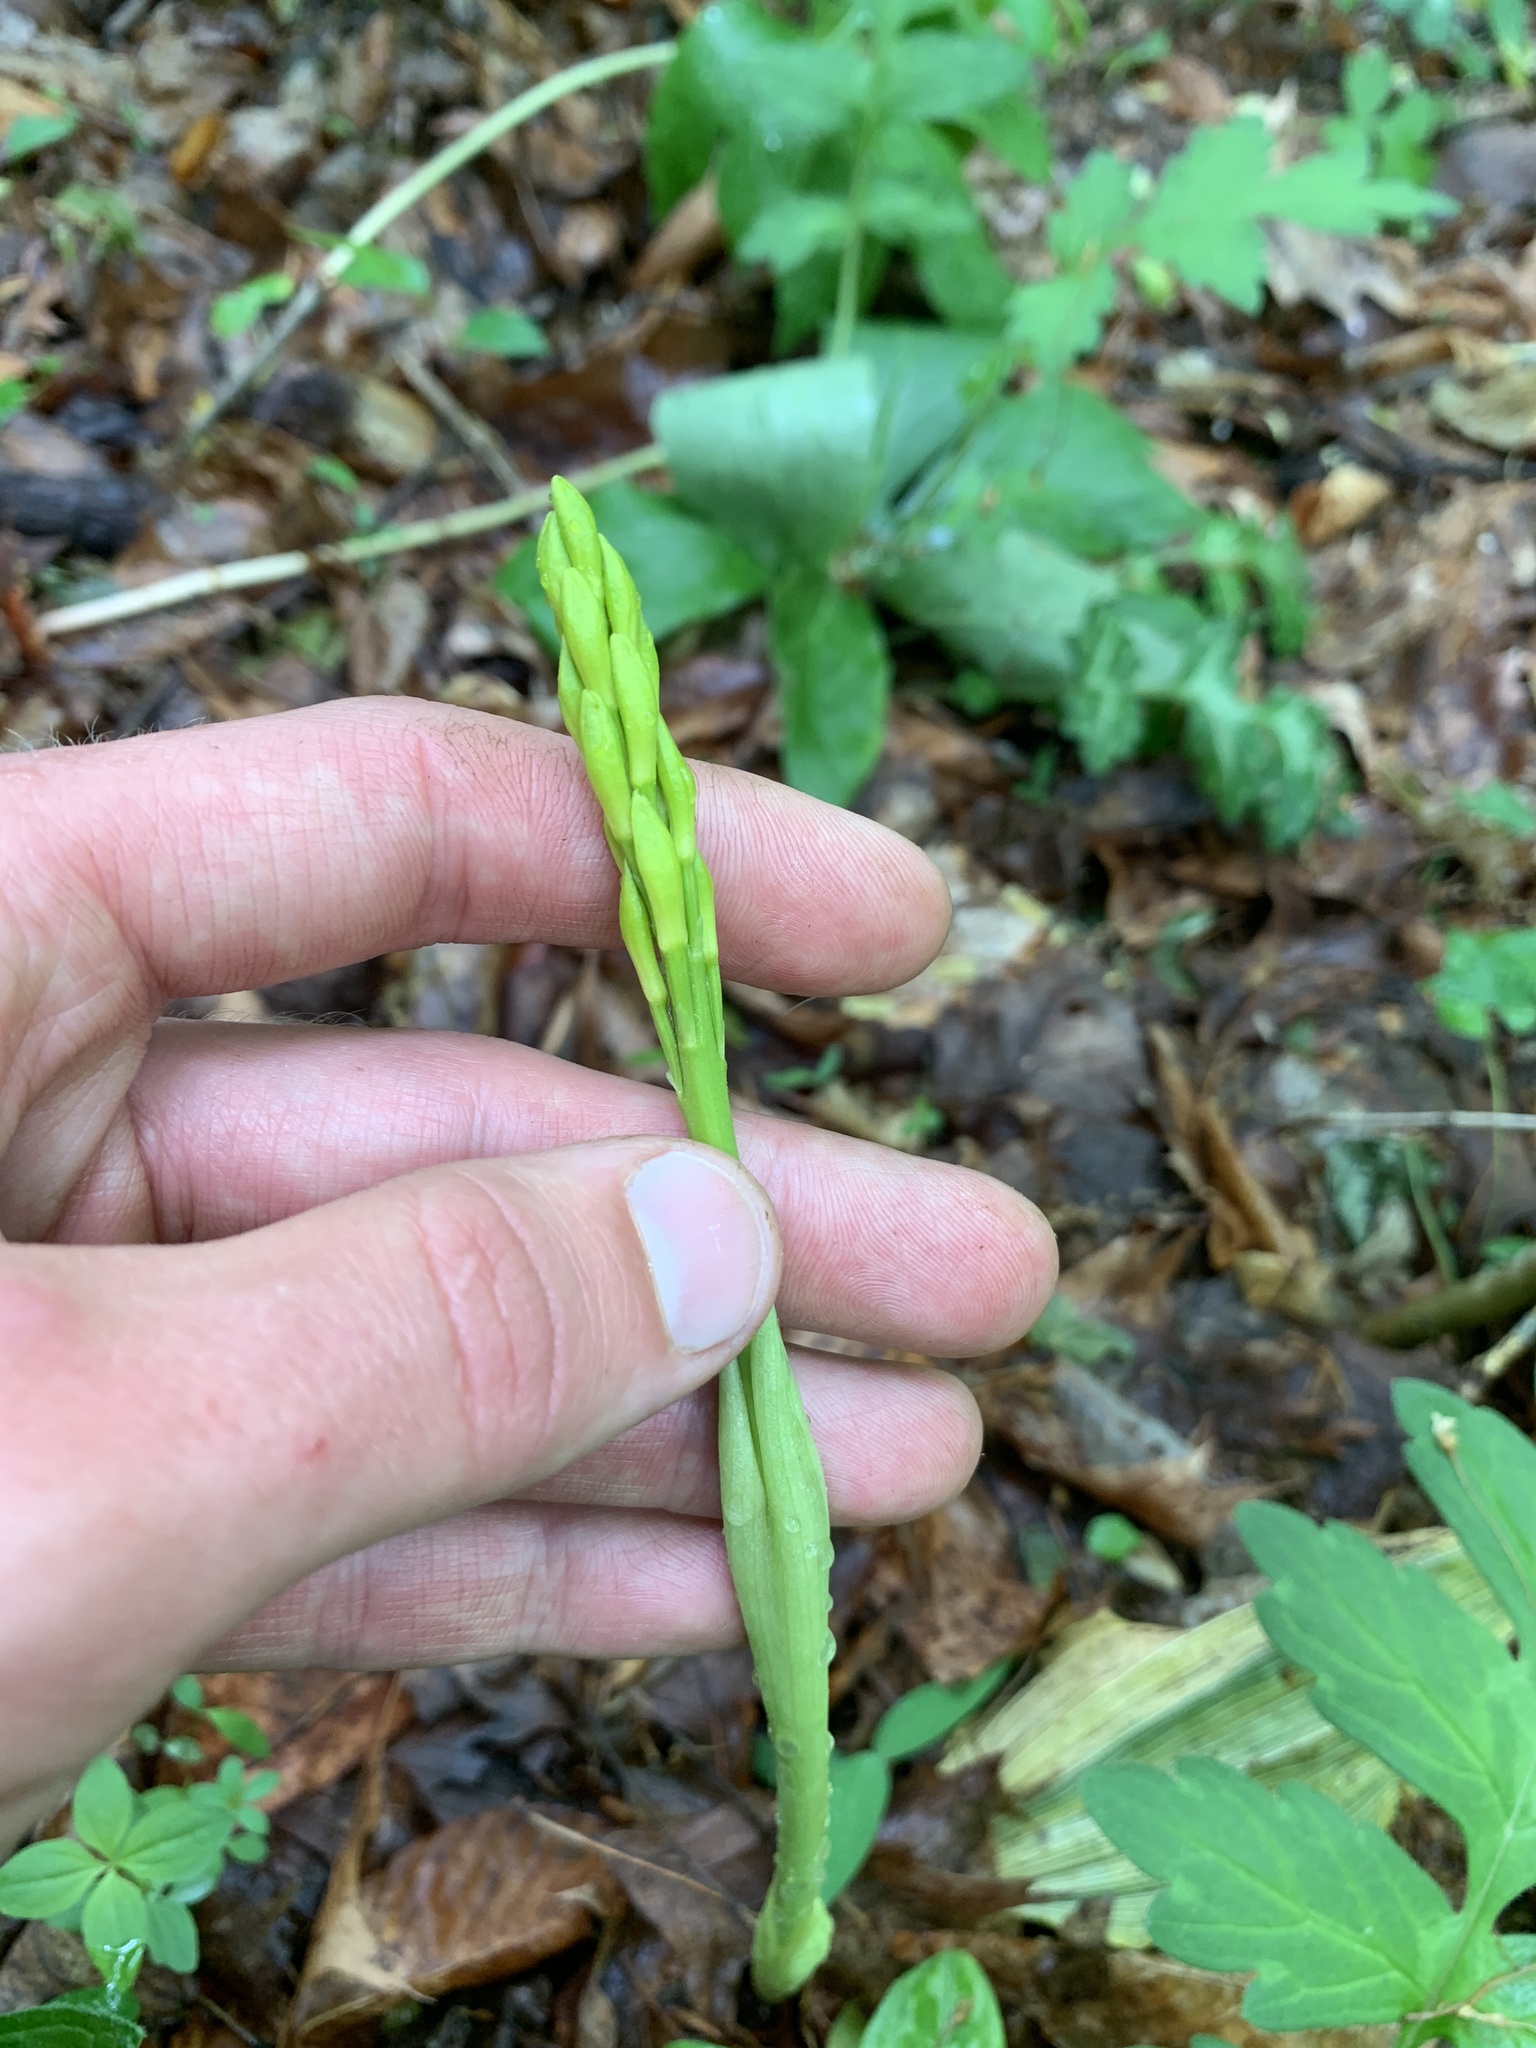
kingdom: Plantae
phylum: Tracheophyta
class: Liliopsida
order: Asparagales
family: Orchidaceae
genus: Aplectrum
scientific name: Aplectrum hyemale
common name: Adam-and-eve
